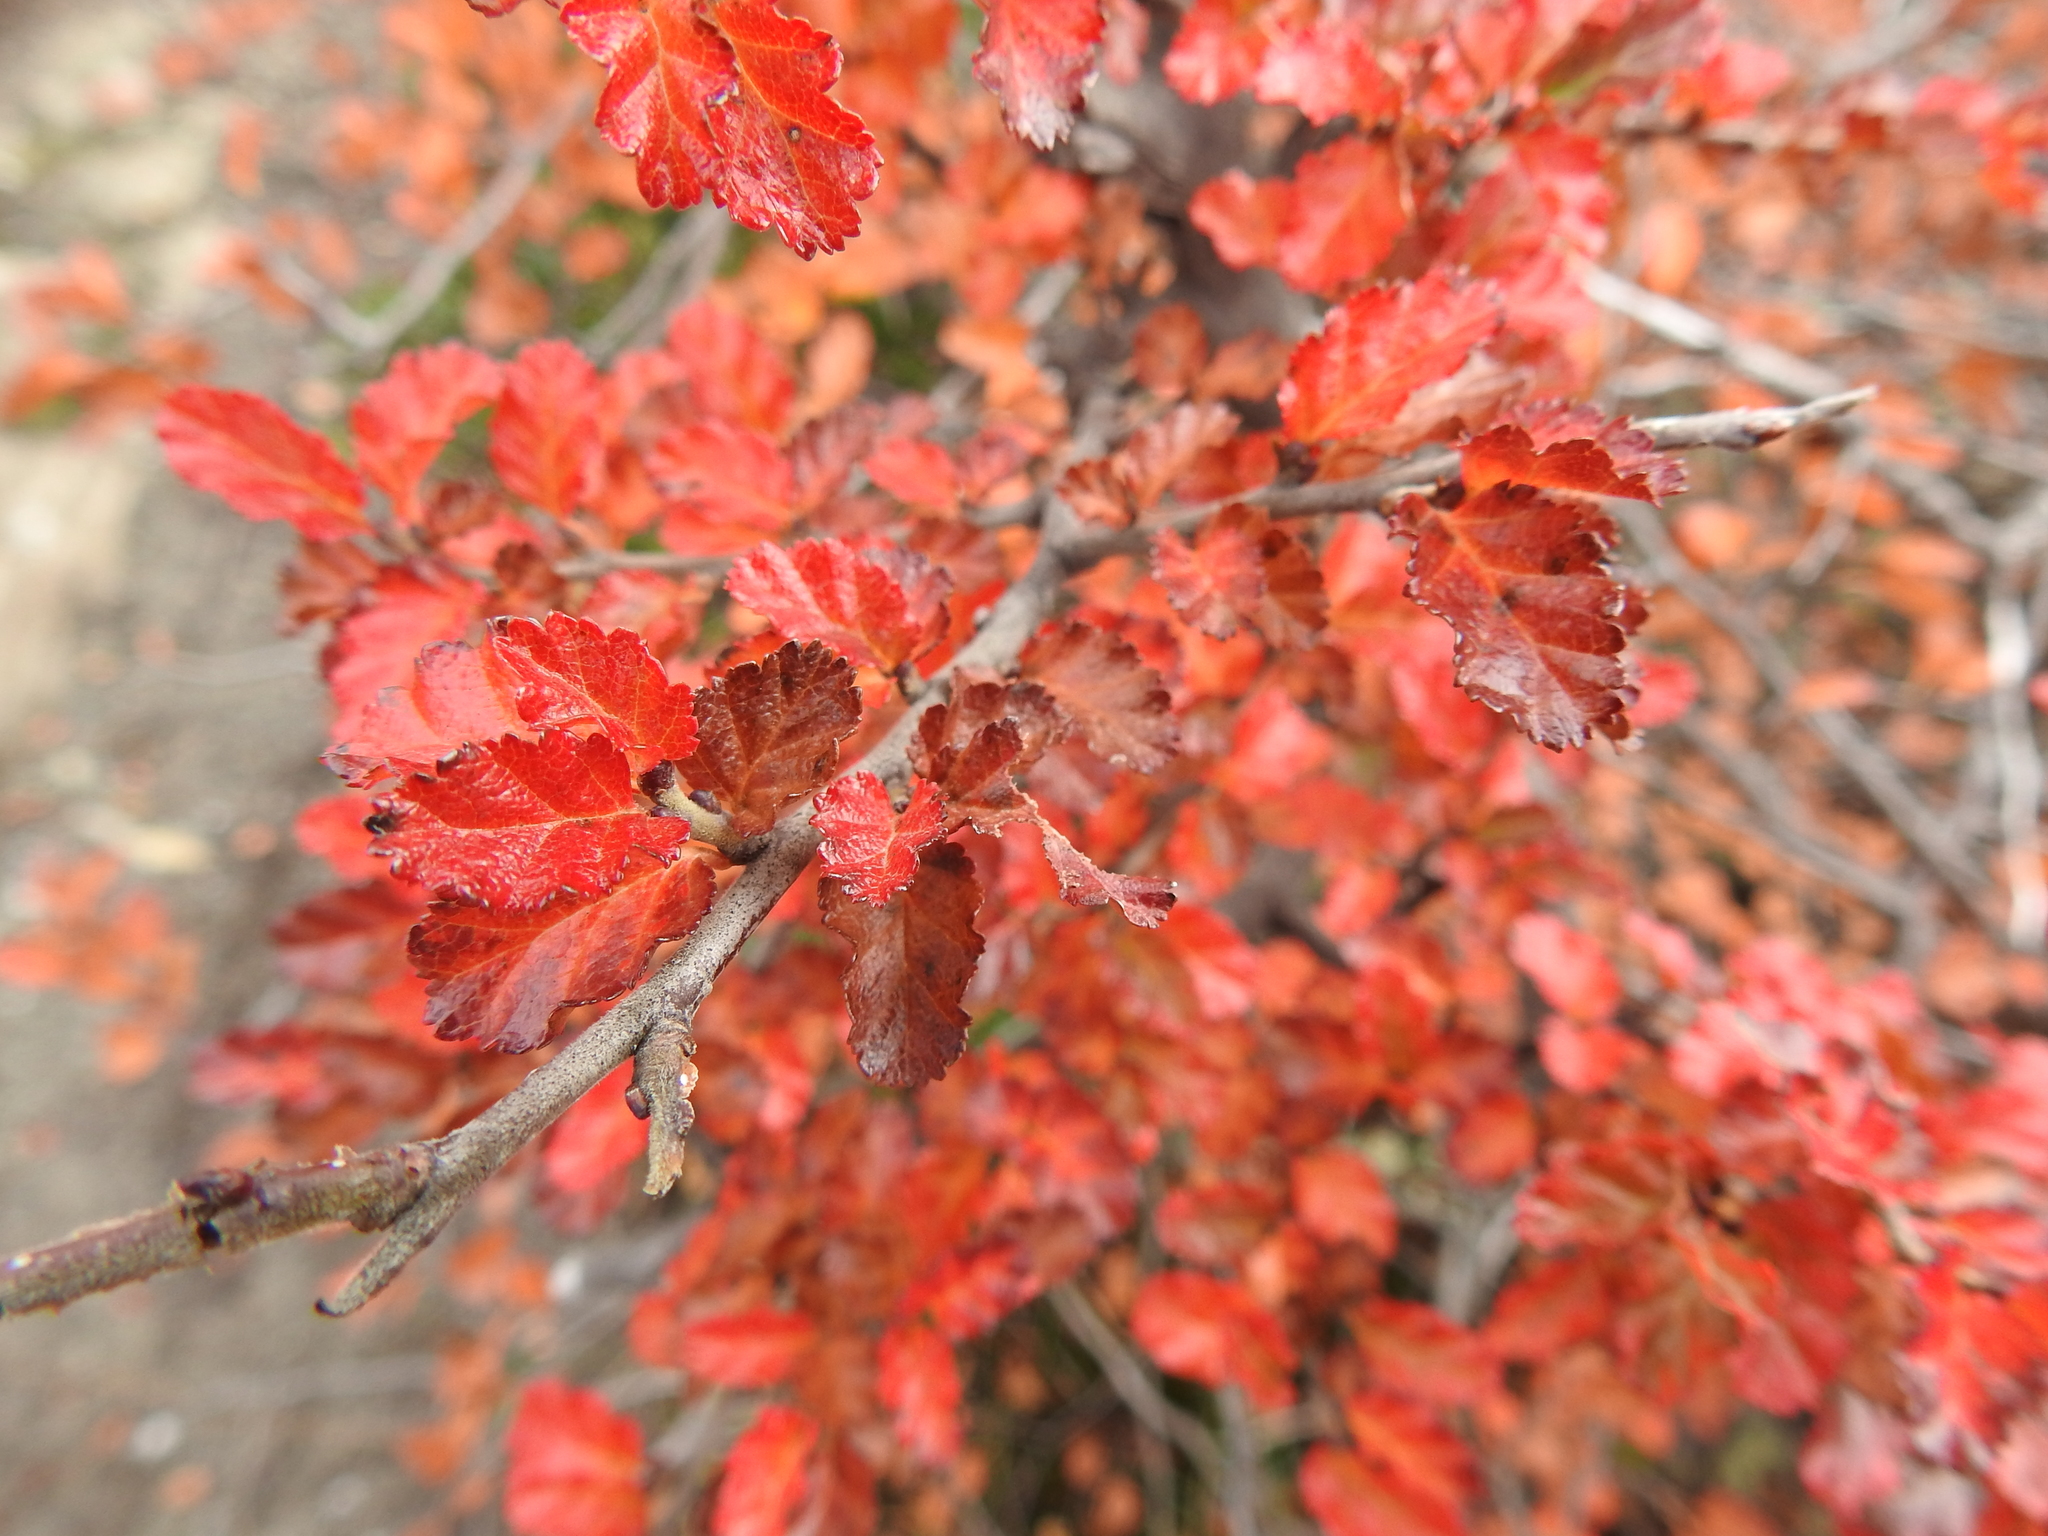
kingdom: Plantae
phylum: Tracheophyta
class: Magnoliopsida
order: Fagales
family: Nothofagaceae
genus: Nothofagus
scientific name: Nothofagus antarctica
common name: Antarctic beech
